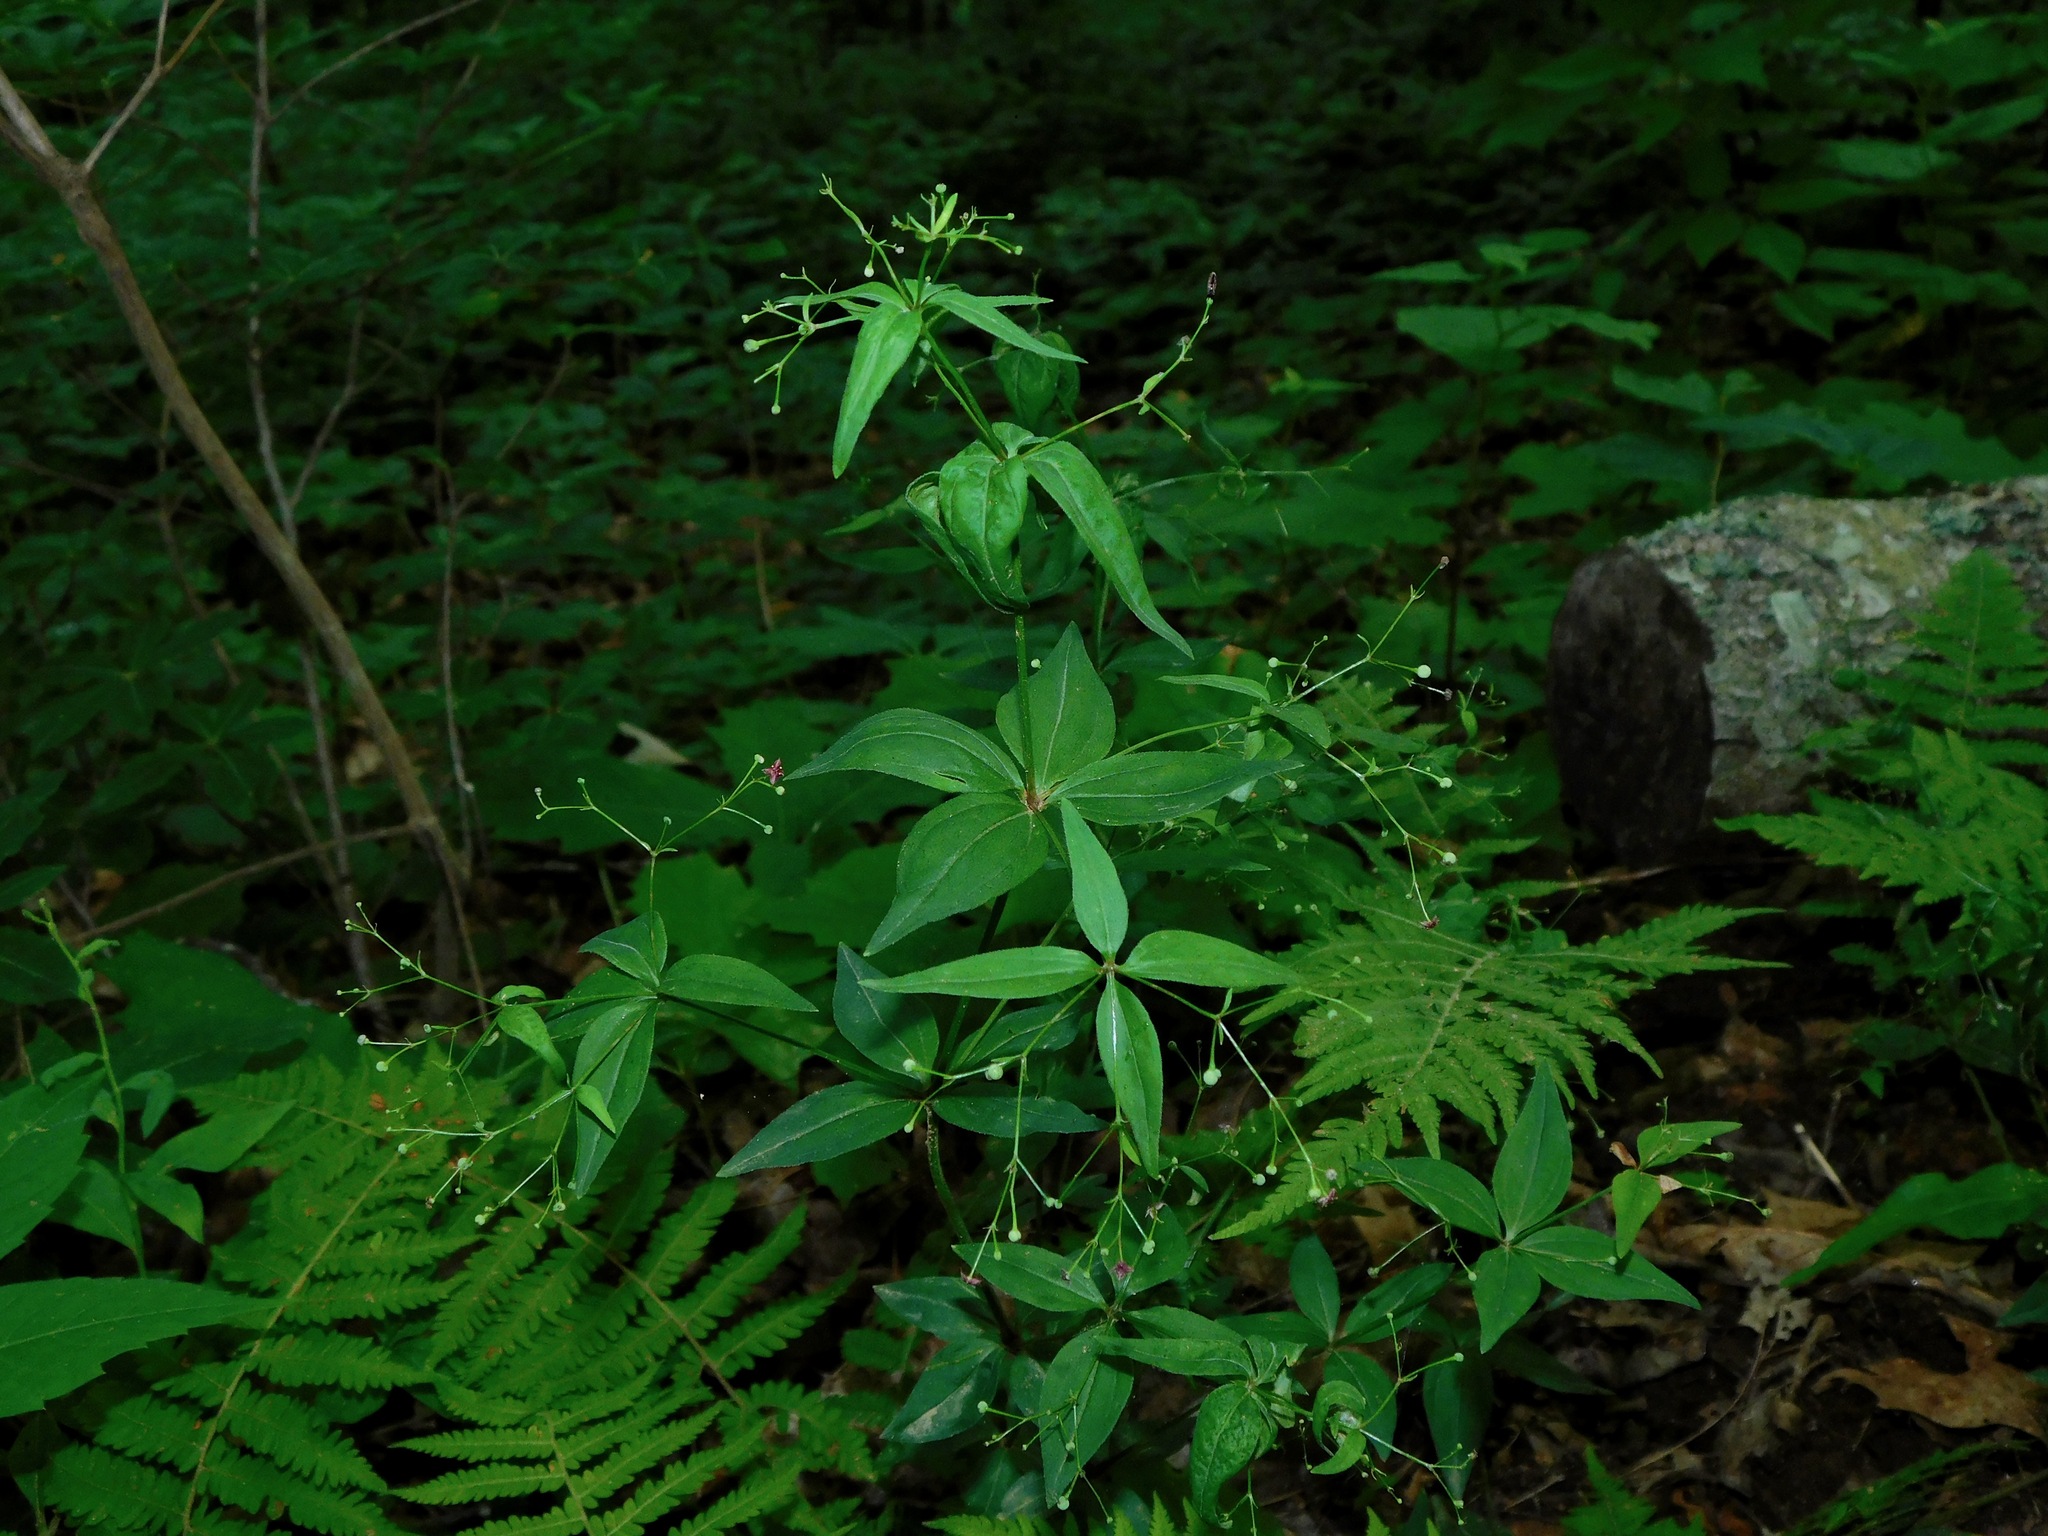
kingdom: Plantae
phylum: Tracheophyta
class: Magnoliopsida
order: Gentianales
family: Rubiaceae
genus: Galium
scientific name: Galium latifolium
